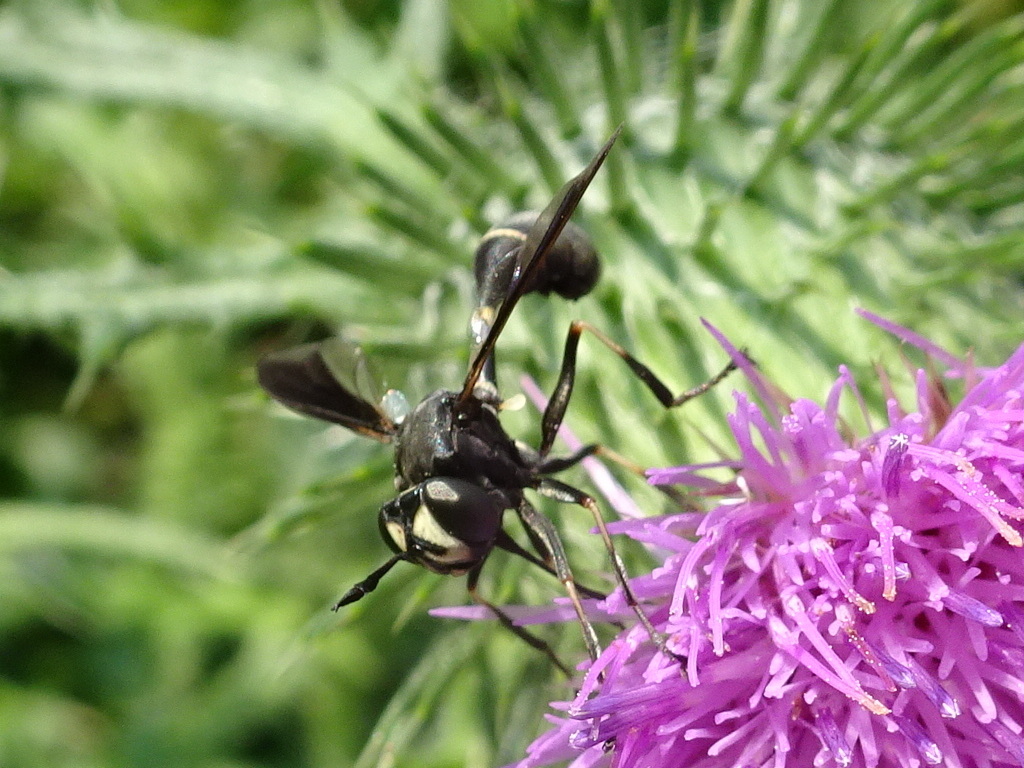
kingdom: Animalia
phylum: Arthropoda
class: Insecta
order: Diptera
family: Conopidae
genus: Physocephala
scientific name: Physocephala tibialis
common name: Common eastern physocephala
